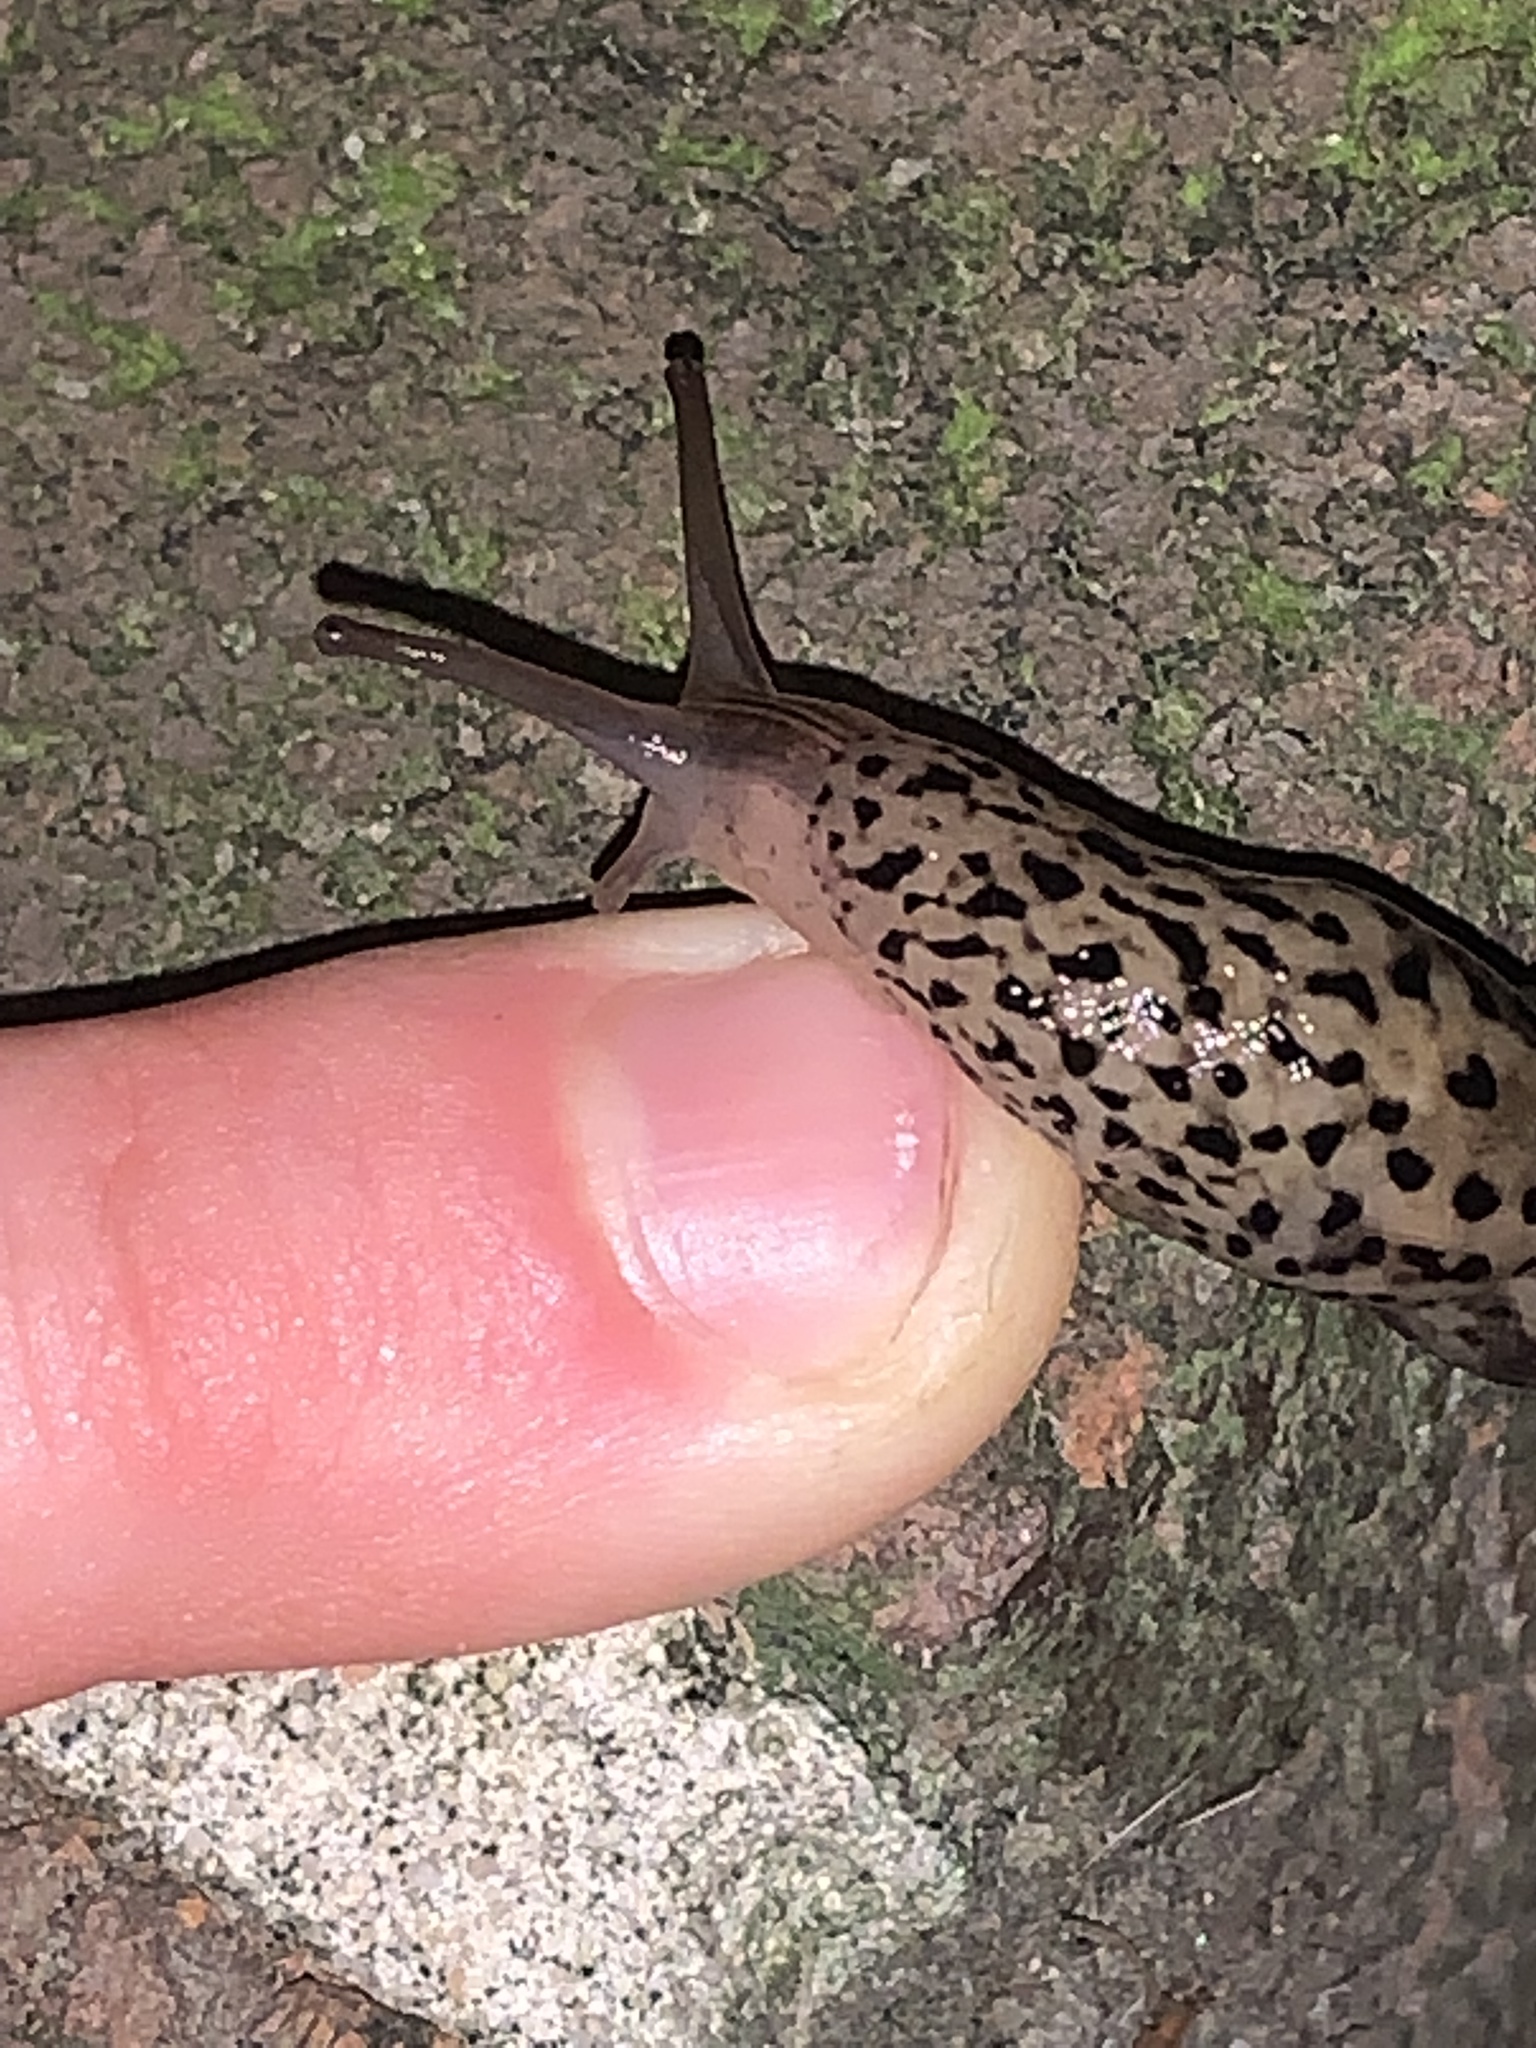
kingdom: Animalia
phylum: Mollusca
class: Gastropoda
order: Stylommatophora
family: Limacidae
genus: Limax
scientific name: Limax maximus
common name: Great grey slug
